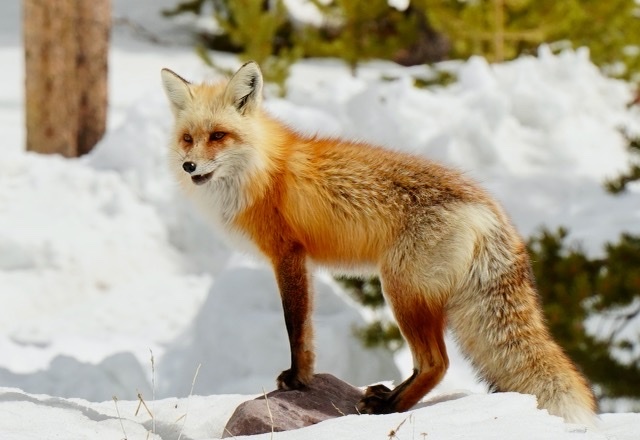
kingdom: Animalia
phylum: Chordata
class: Mammalia
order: Carnivora
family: Canidae
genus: Vulpes
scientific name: Vulpes vulpes
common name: Red fox
